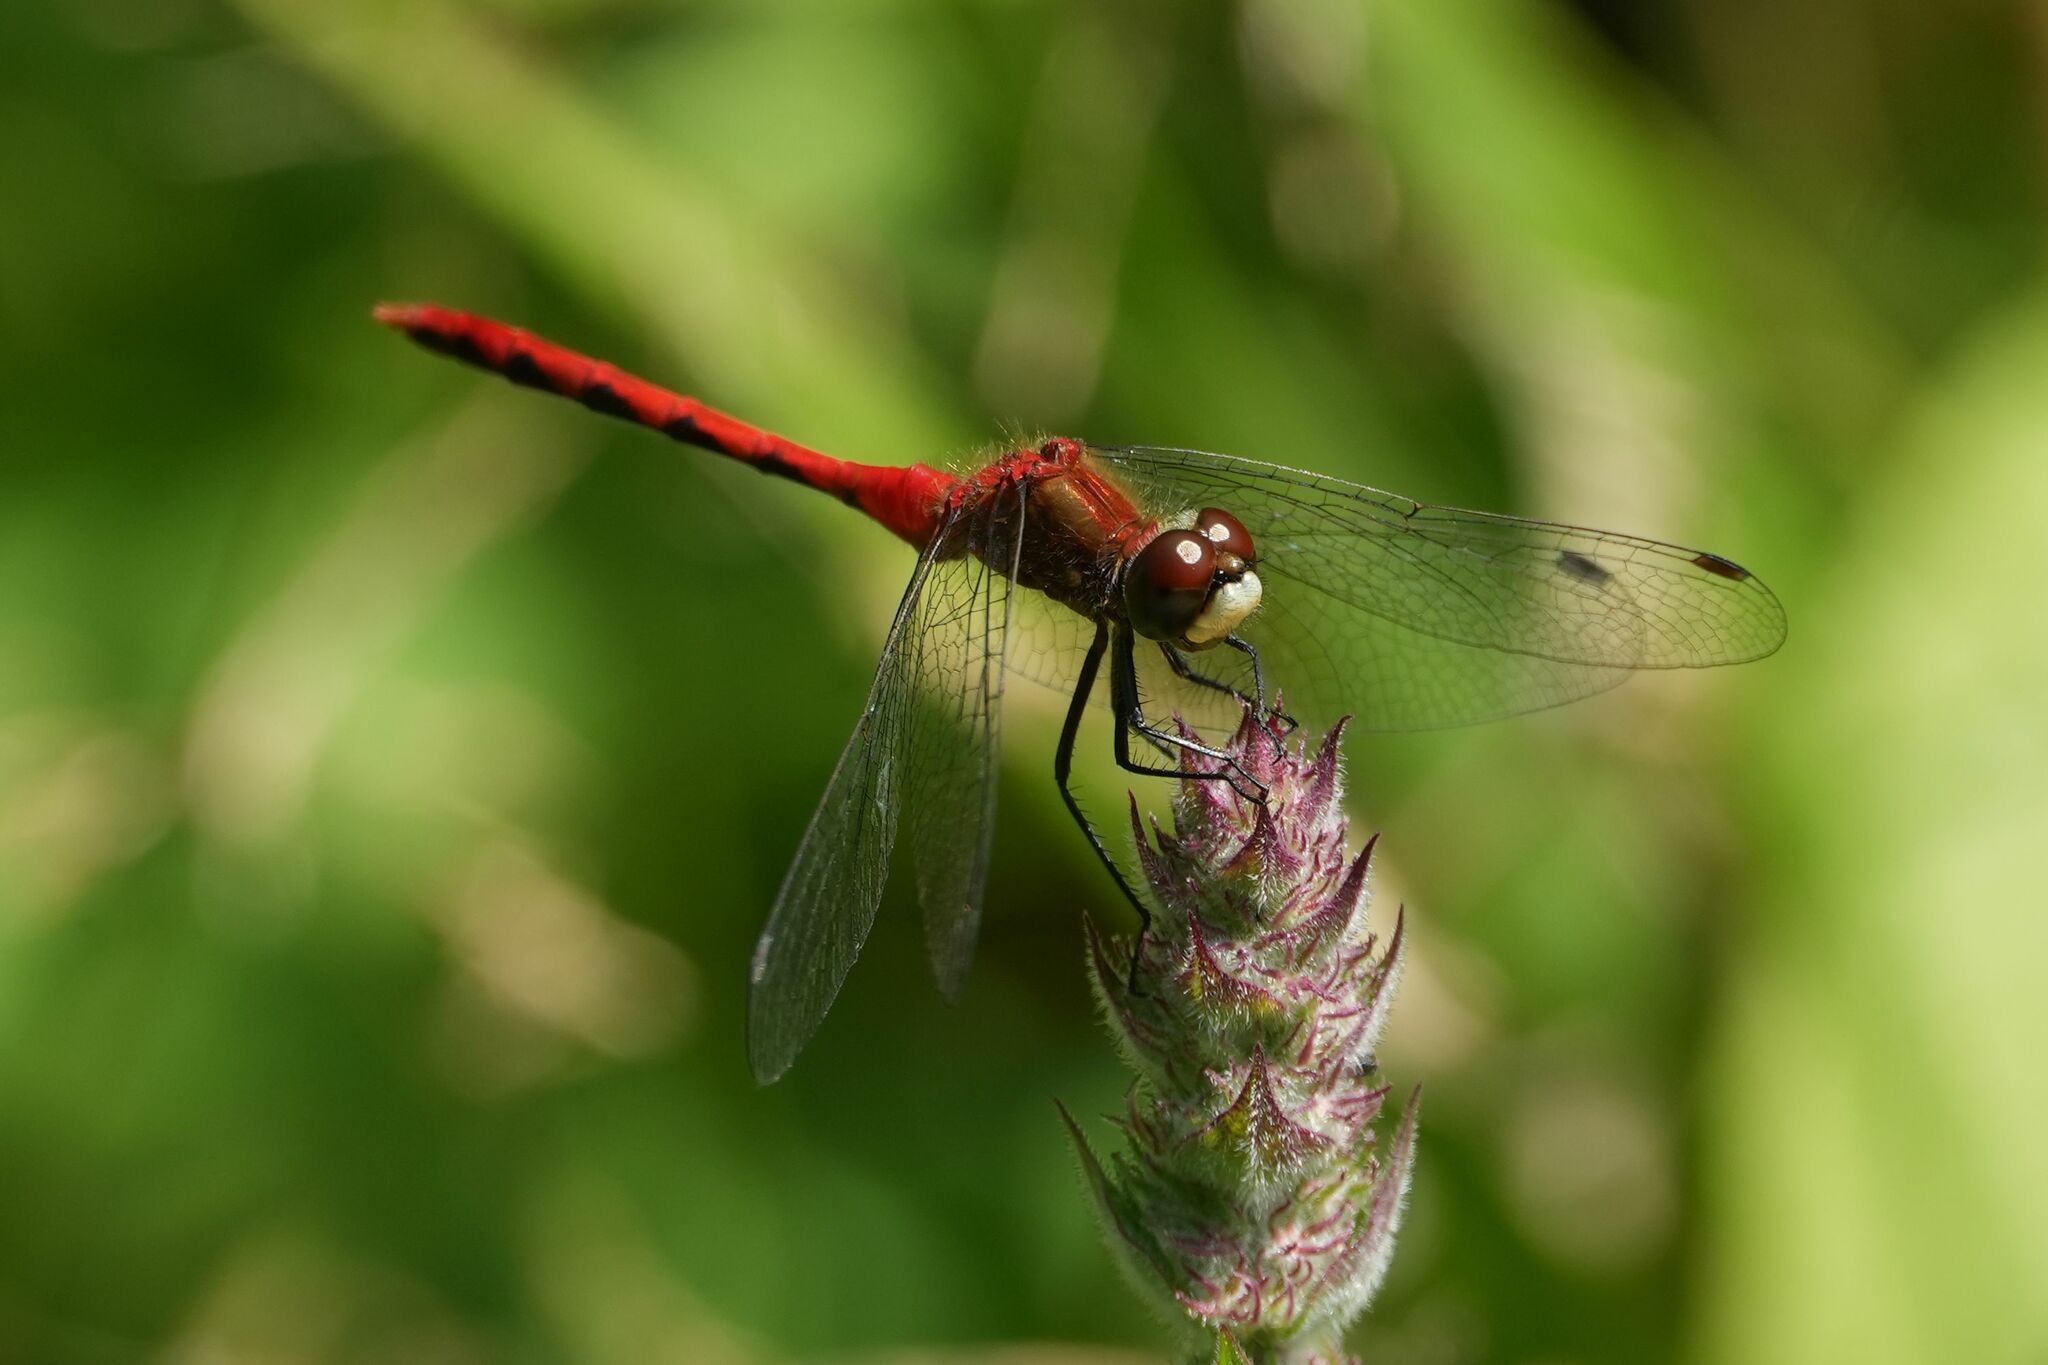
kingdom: Animalia
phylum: Arthropoda
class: Insecta
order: Odonata
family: Libellulidae
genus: Sympetrum
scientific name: Sympetrum obtrusum
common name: White-faced meadowhawk
